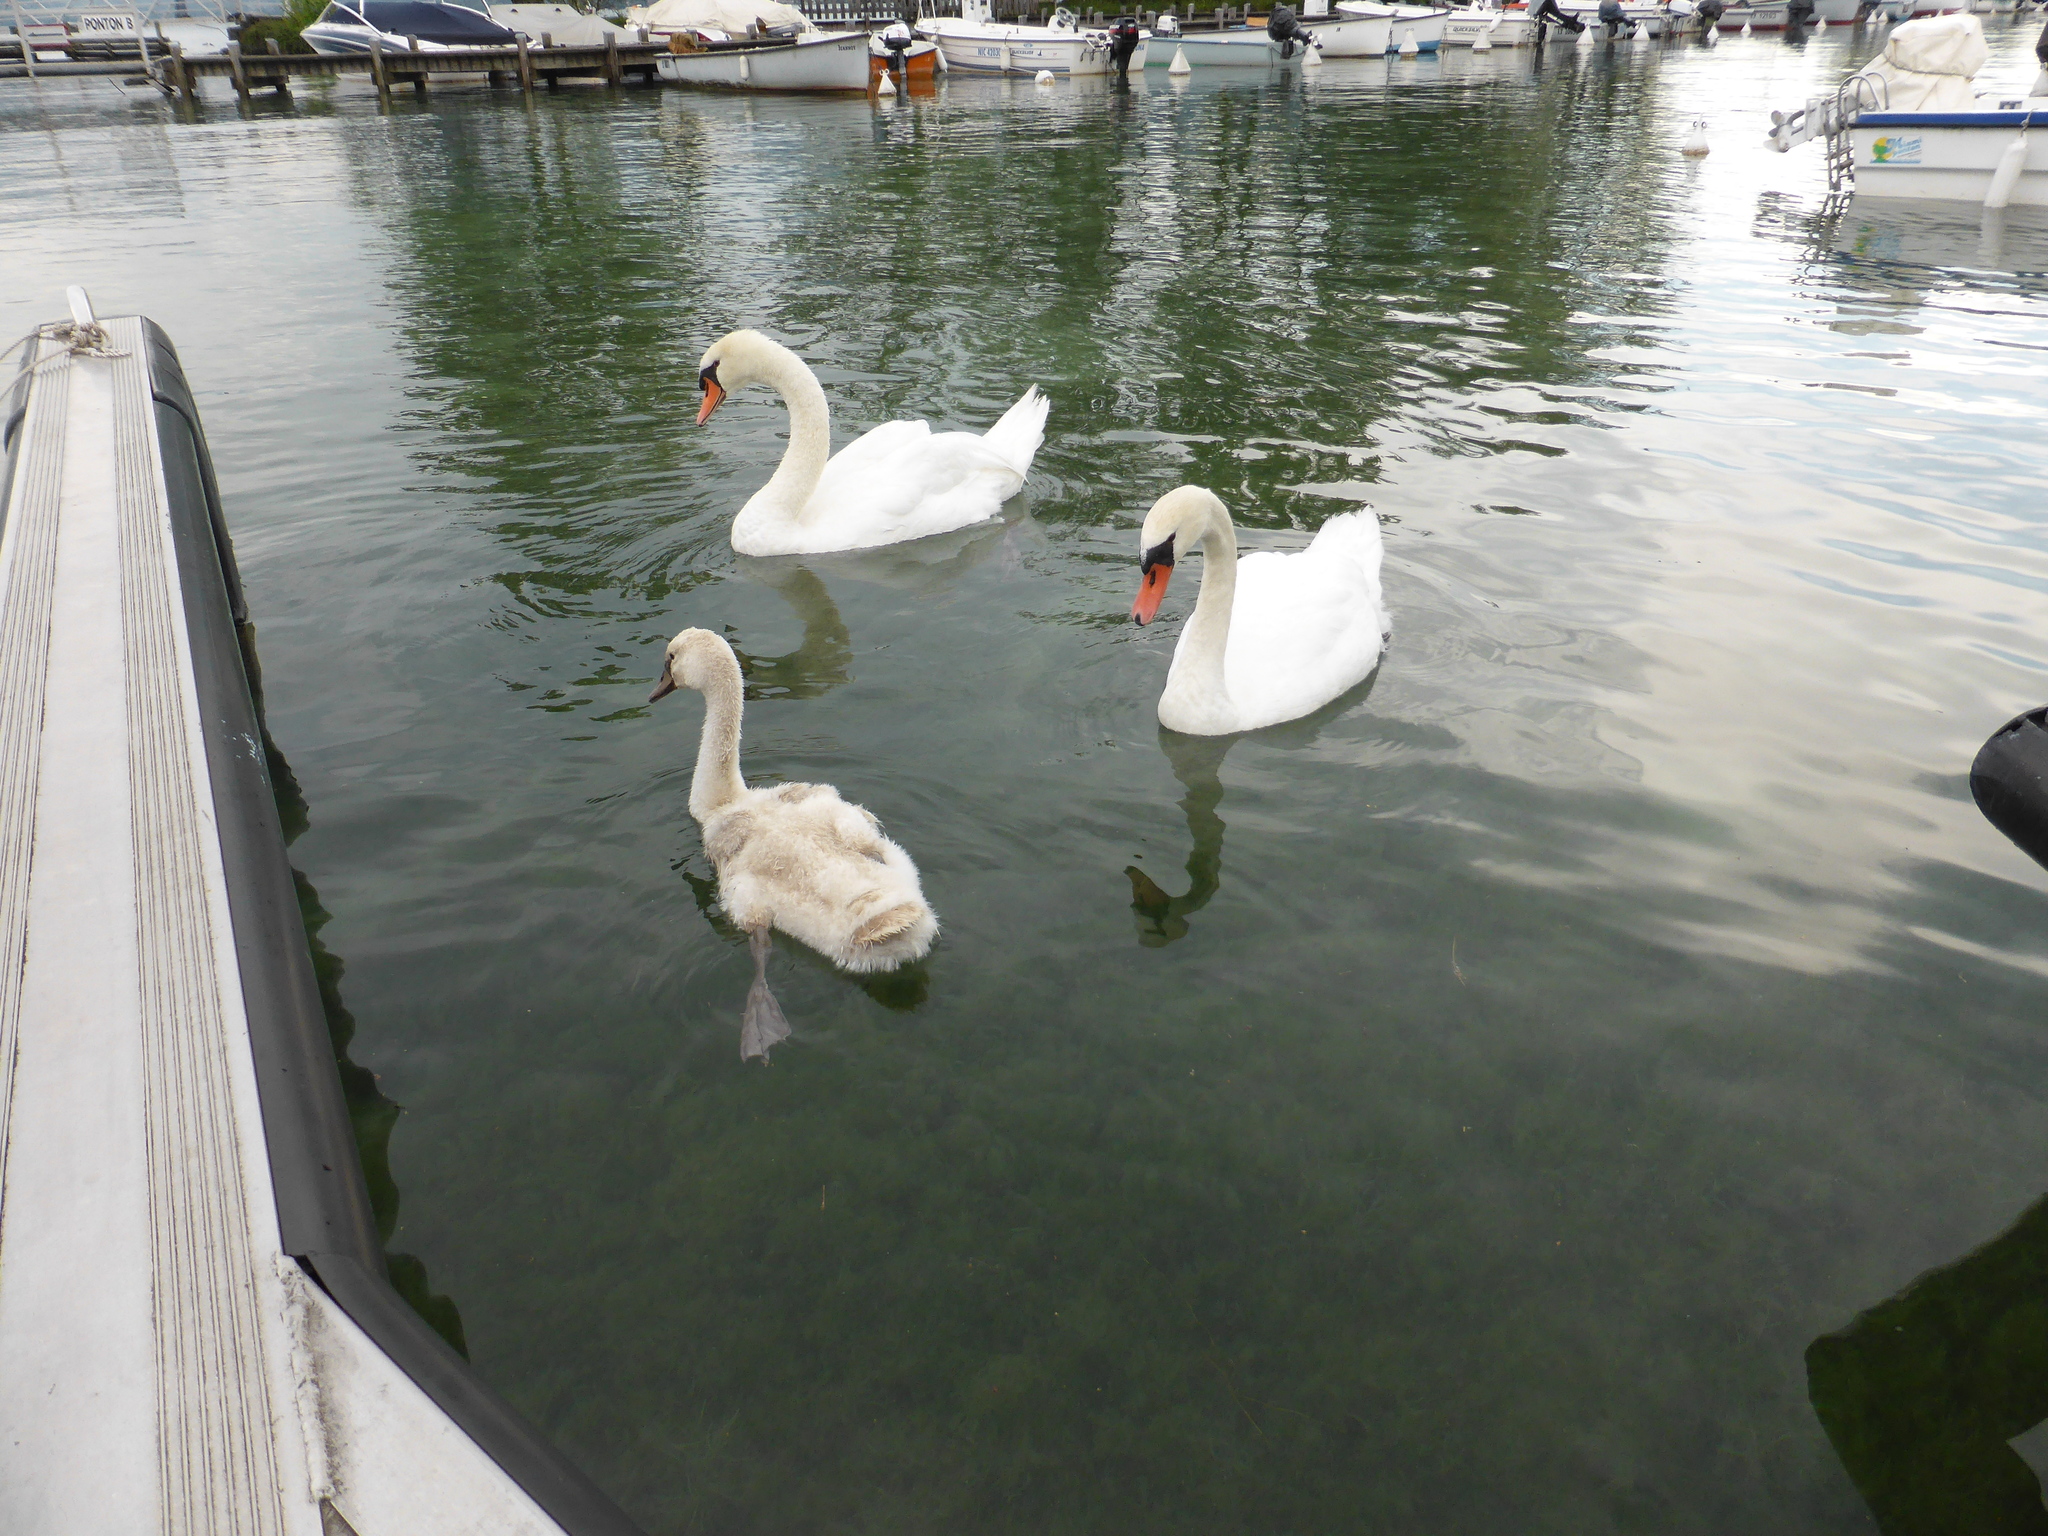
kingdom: Animalia
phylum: Chordata
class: Aves
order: Anseriformes
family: Anatidae
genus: Cygnus
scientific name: Cygnus olor
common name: Mute swan
